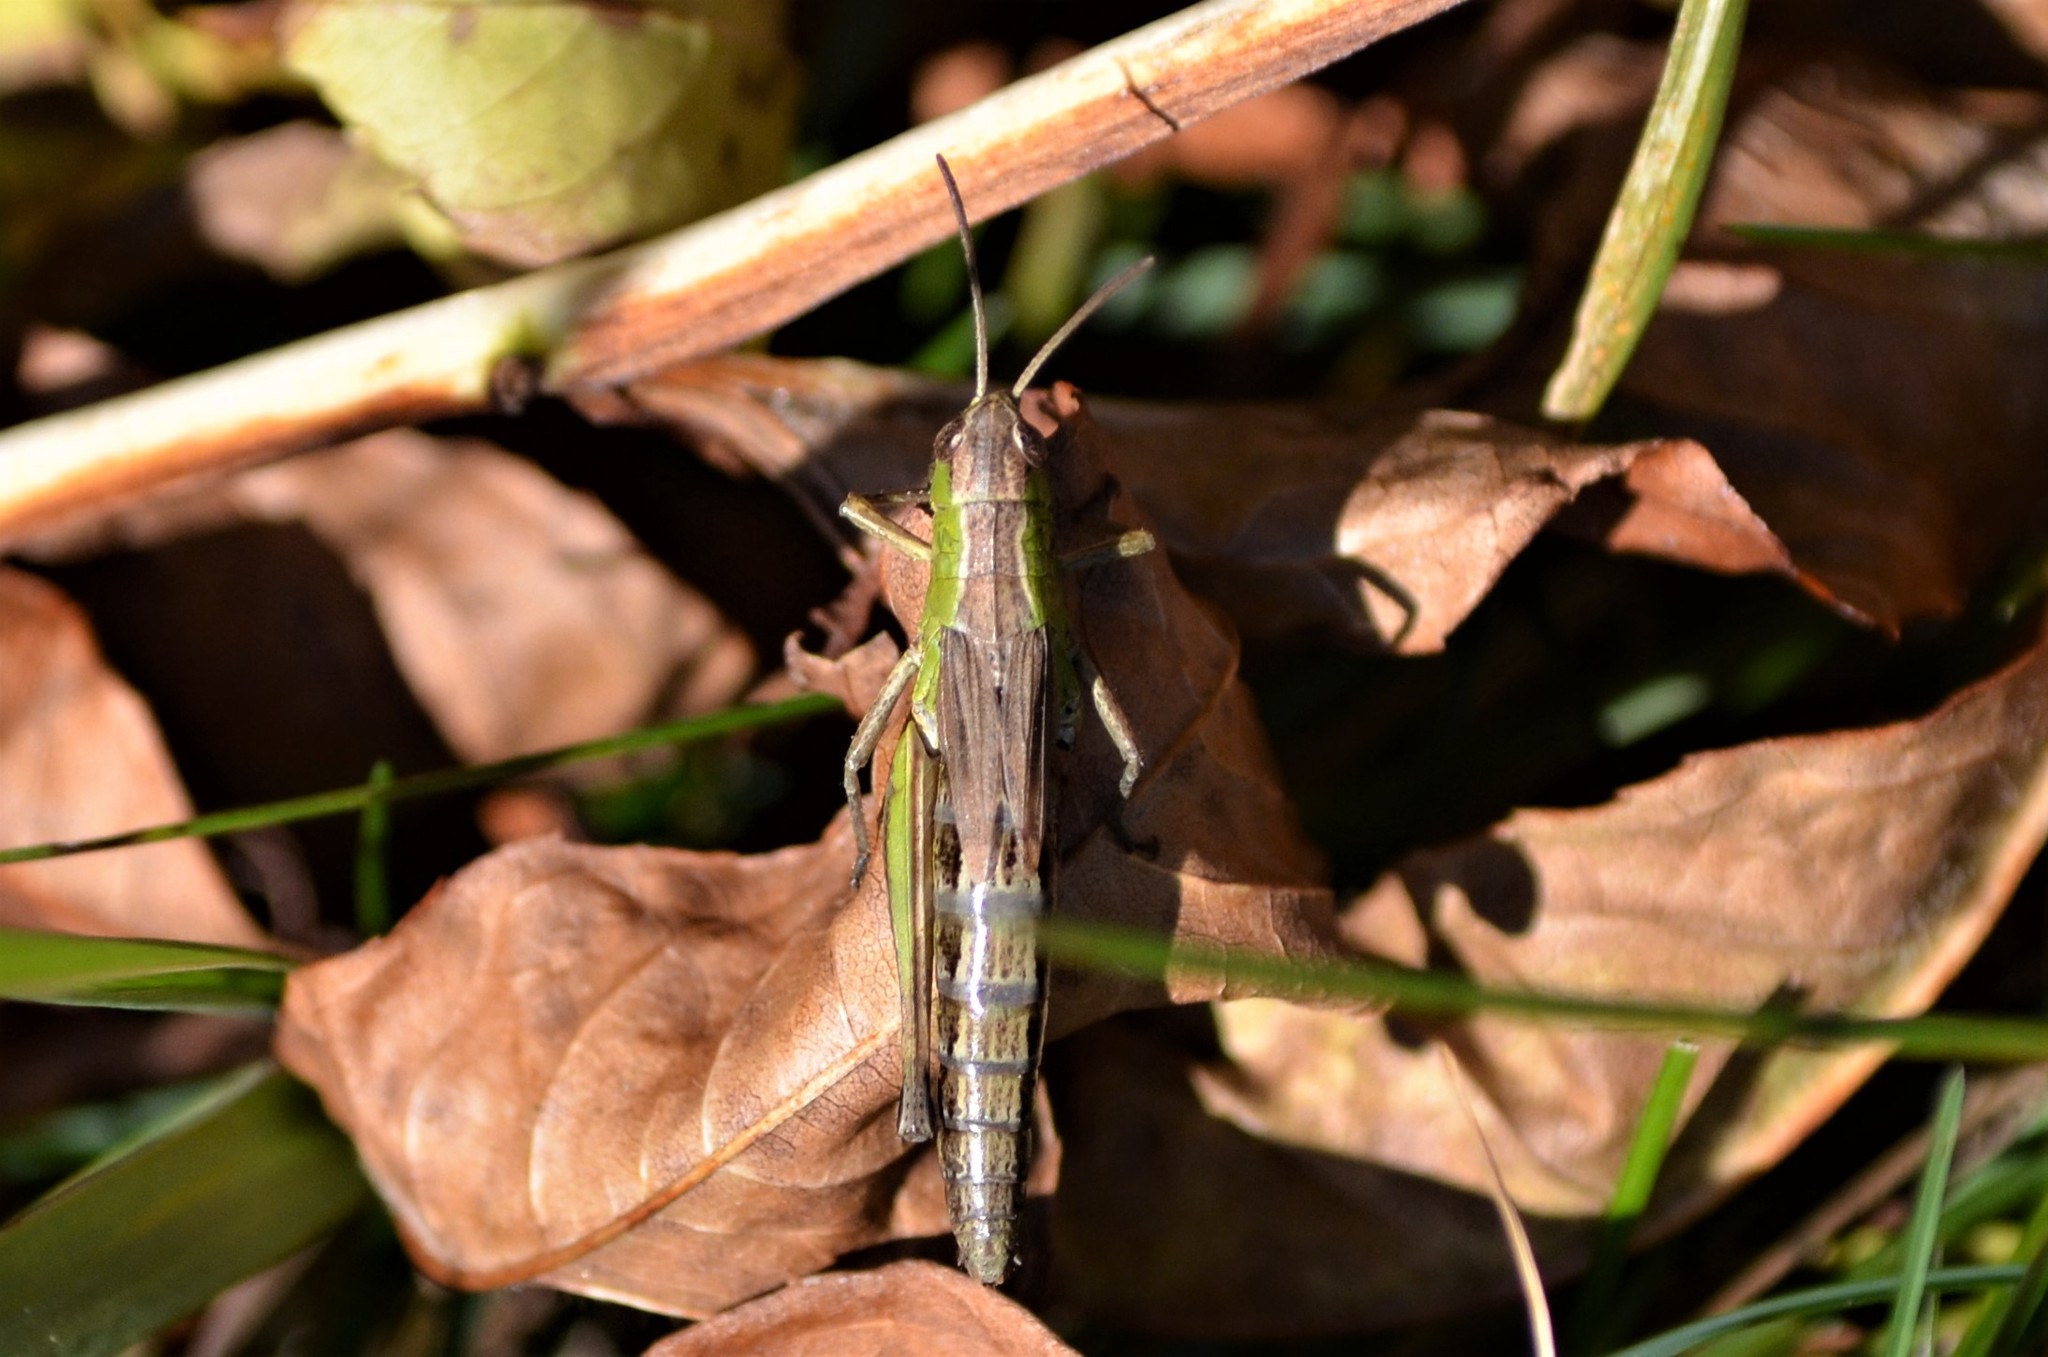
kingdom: Animalia
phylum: Arthropoda
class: Insecta
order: Orthoptera
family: Acrididae
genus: Pseudochorthippus
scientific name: Pseudochorthippus parallelus
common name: Meadow grasshopper
